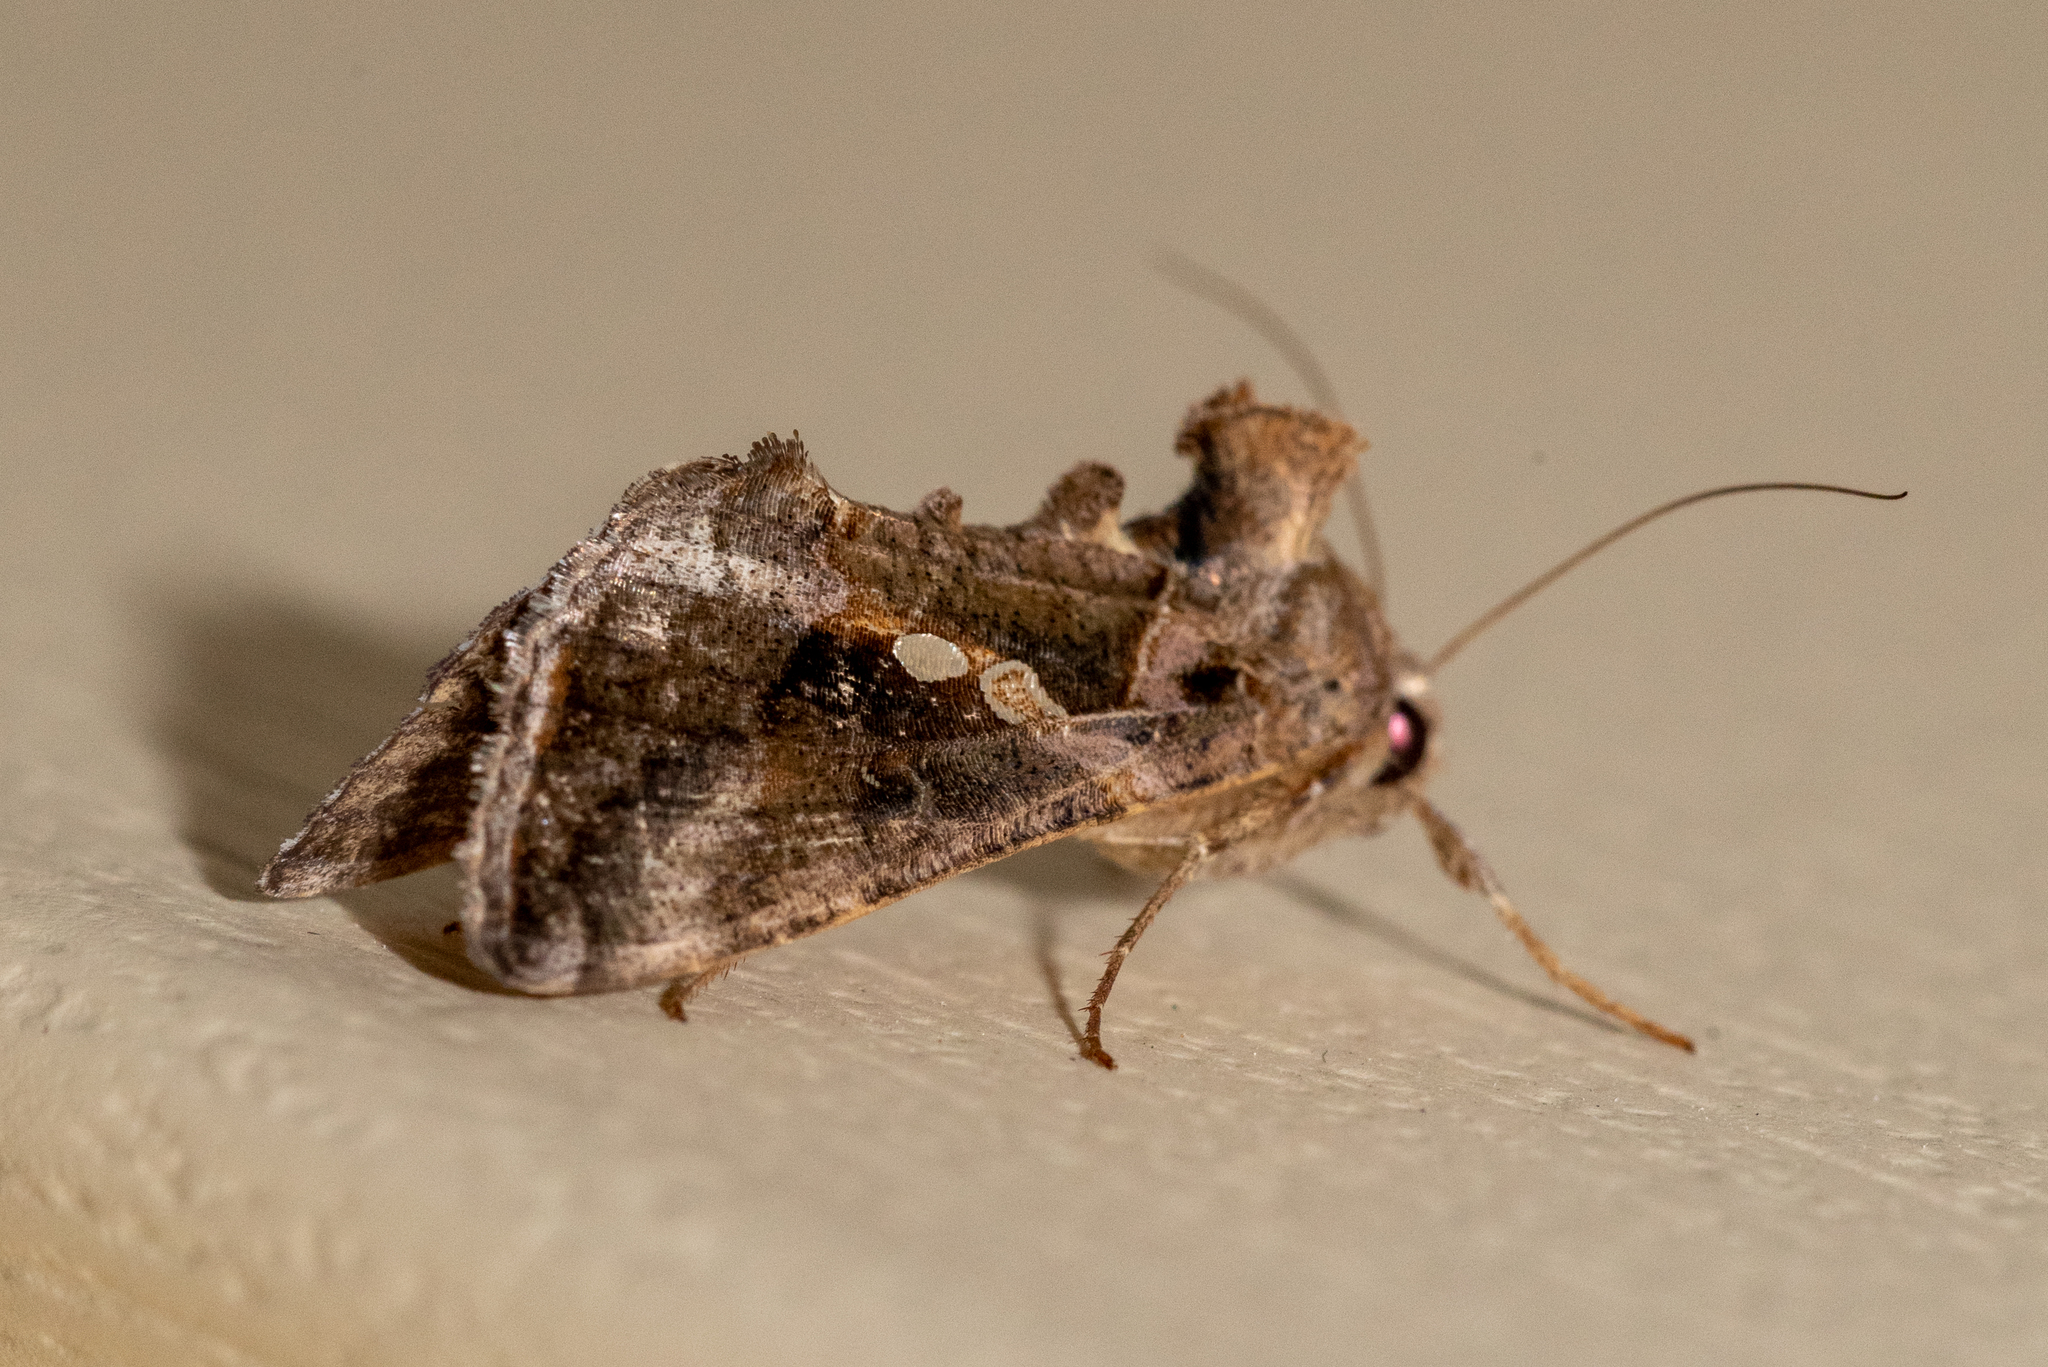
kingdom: Animalia
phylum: Arthropoda
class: Insecta
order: Lepidoptera
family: Noctuidae
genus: Chrysodeixis
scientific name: Chrysodeixis includens
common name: Cutworm moth
